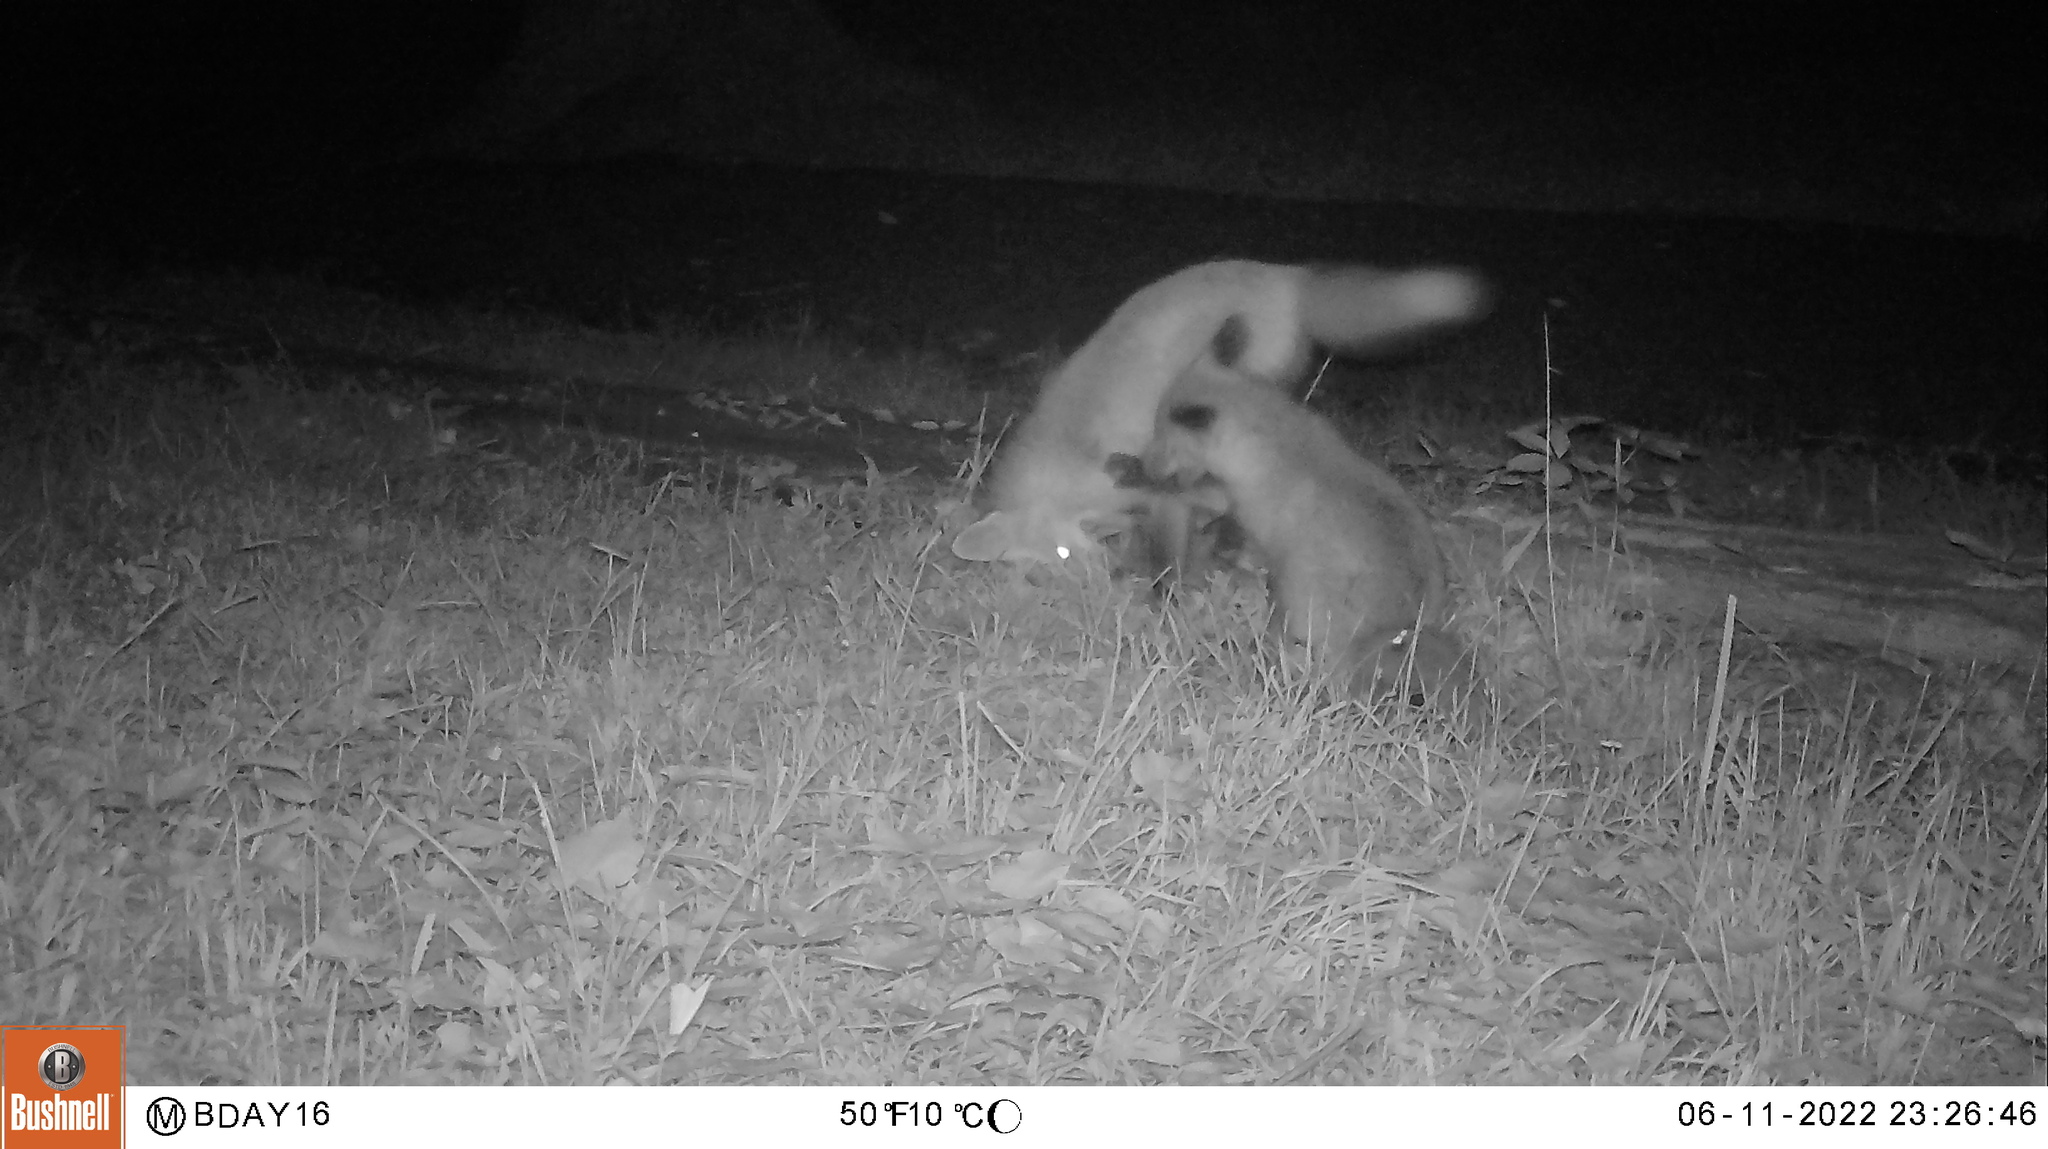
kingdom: Animalia
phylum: Chordata
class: Mammalia
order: Carnivora
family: Canidae
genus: Vulpes
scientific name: Vulpes vulpes
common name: Red fox
